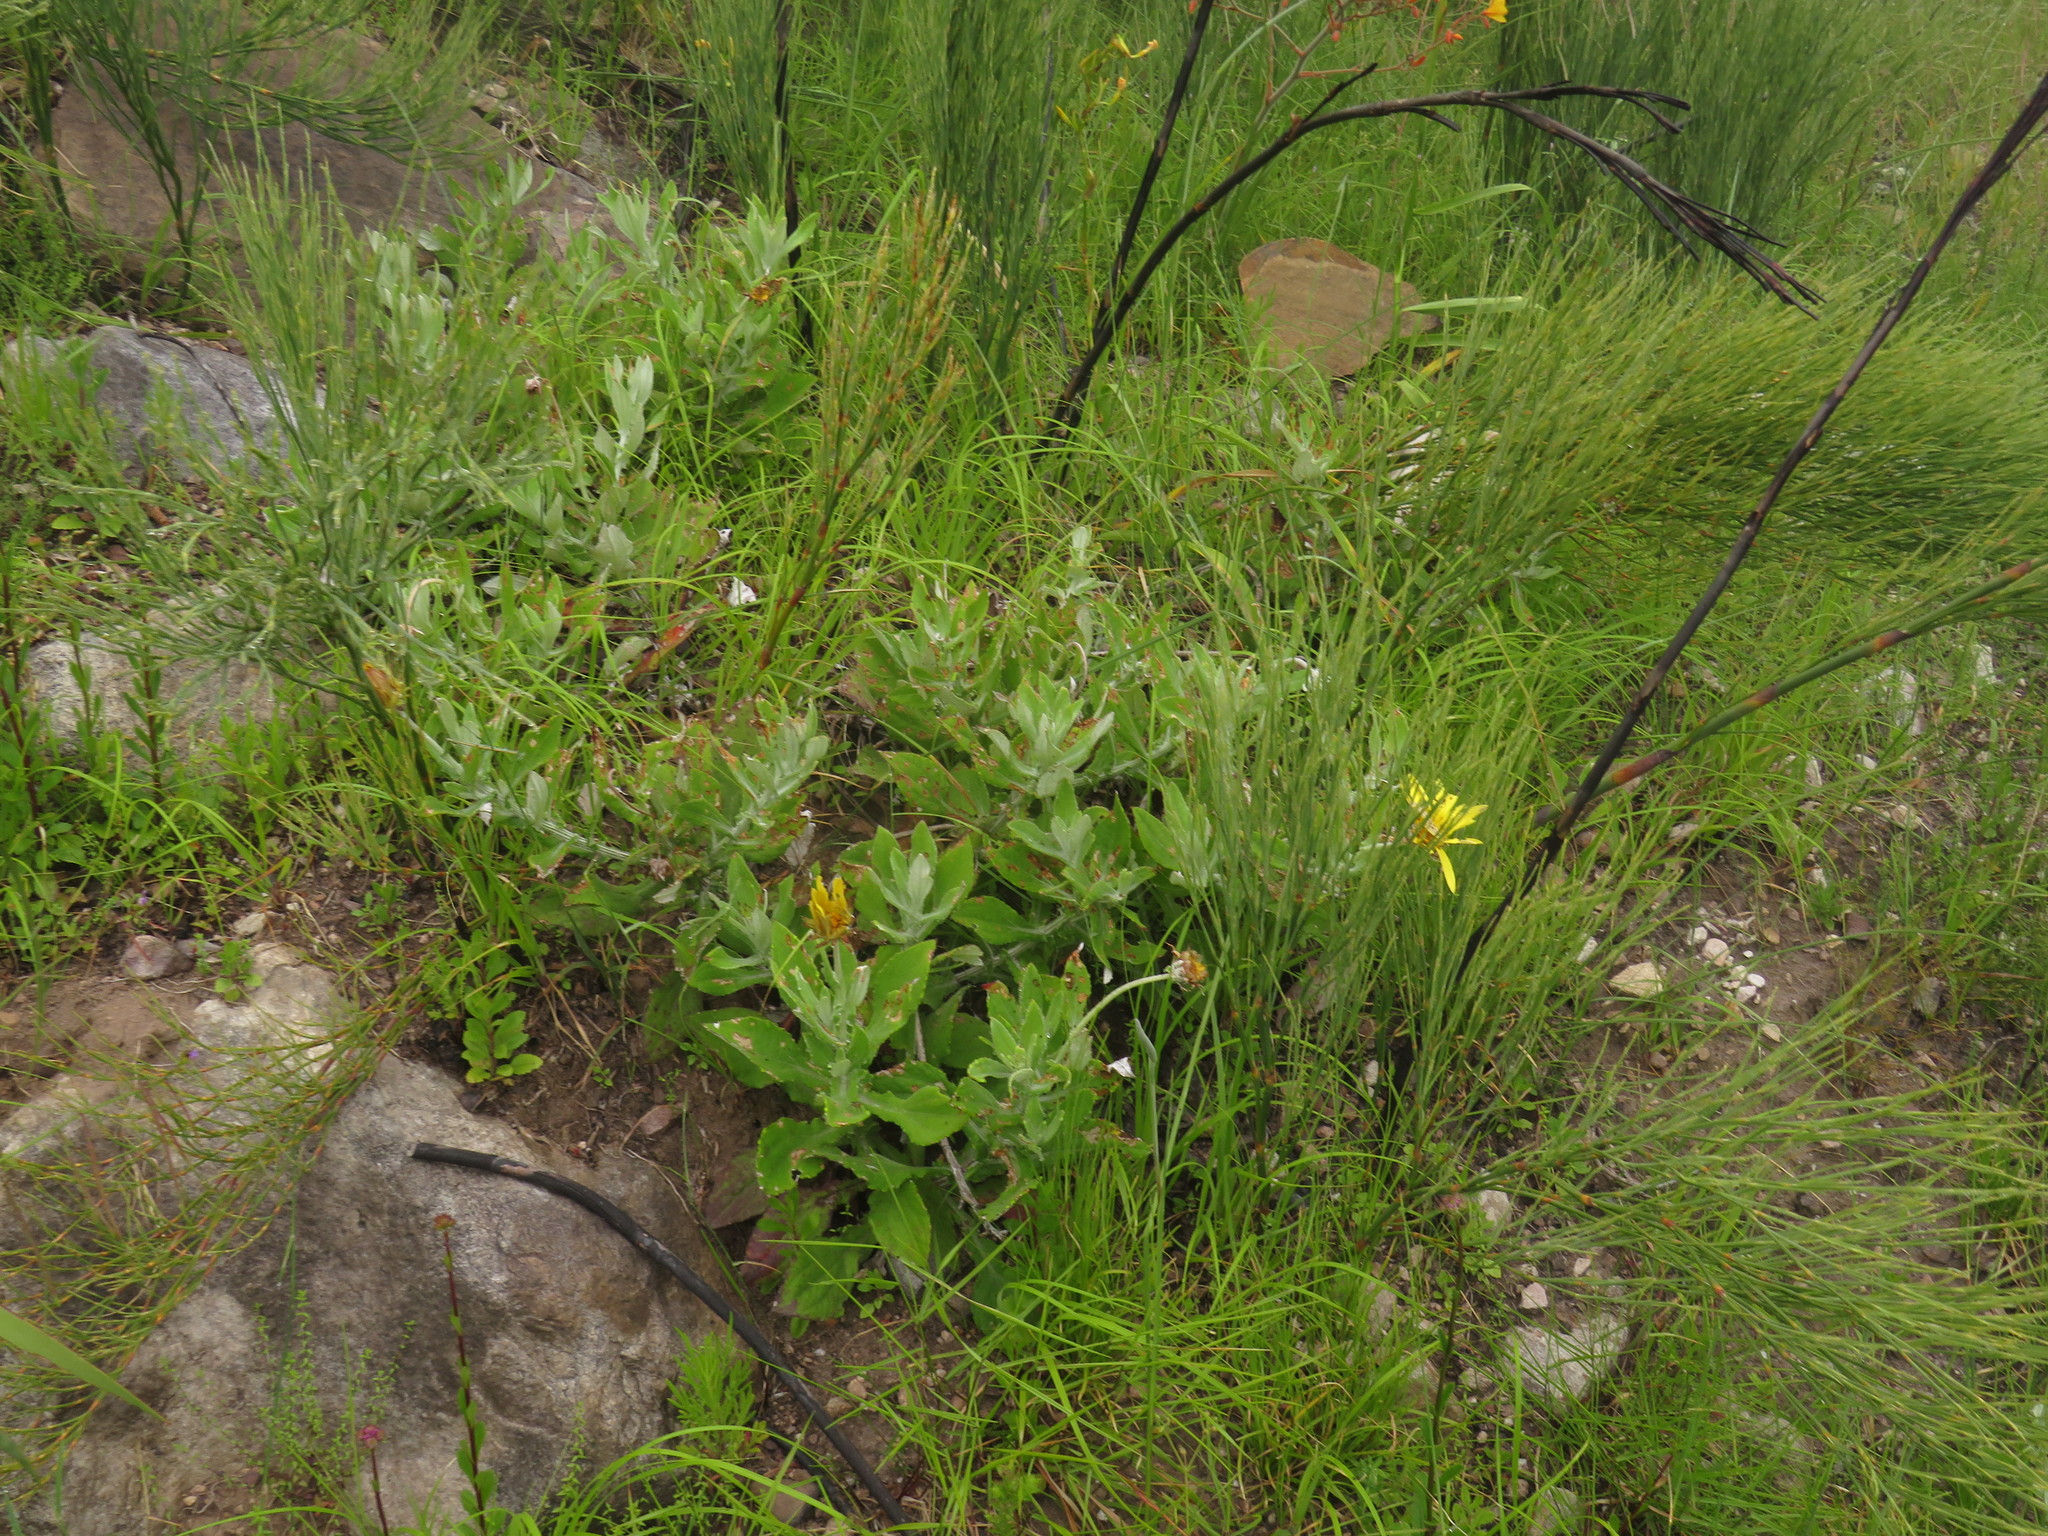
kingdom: Plantae
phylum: Tracheophyta
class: Magnoliopsida
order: Asterales
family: Asteraceae
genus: Arctotis
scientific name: Arctotis scabra
